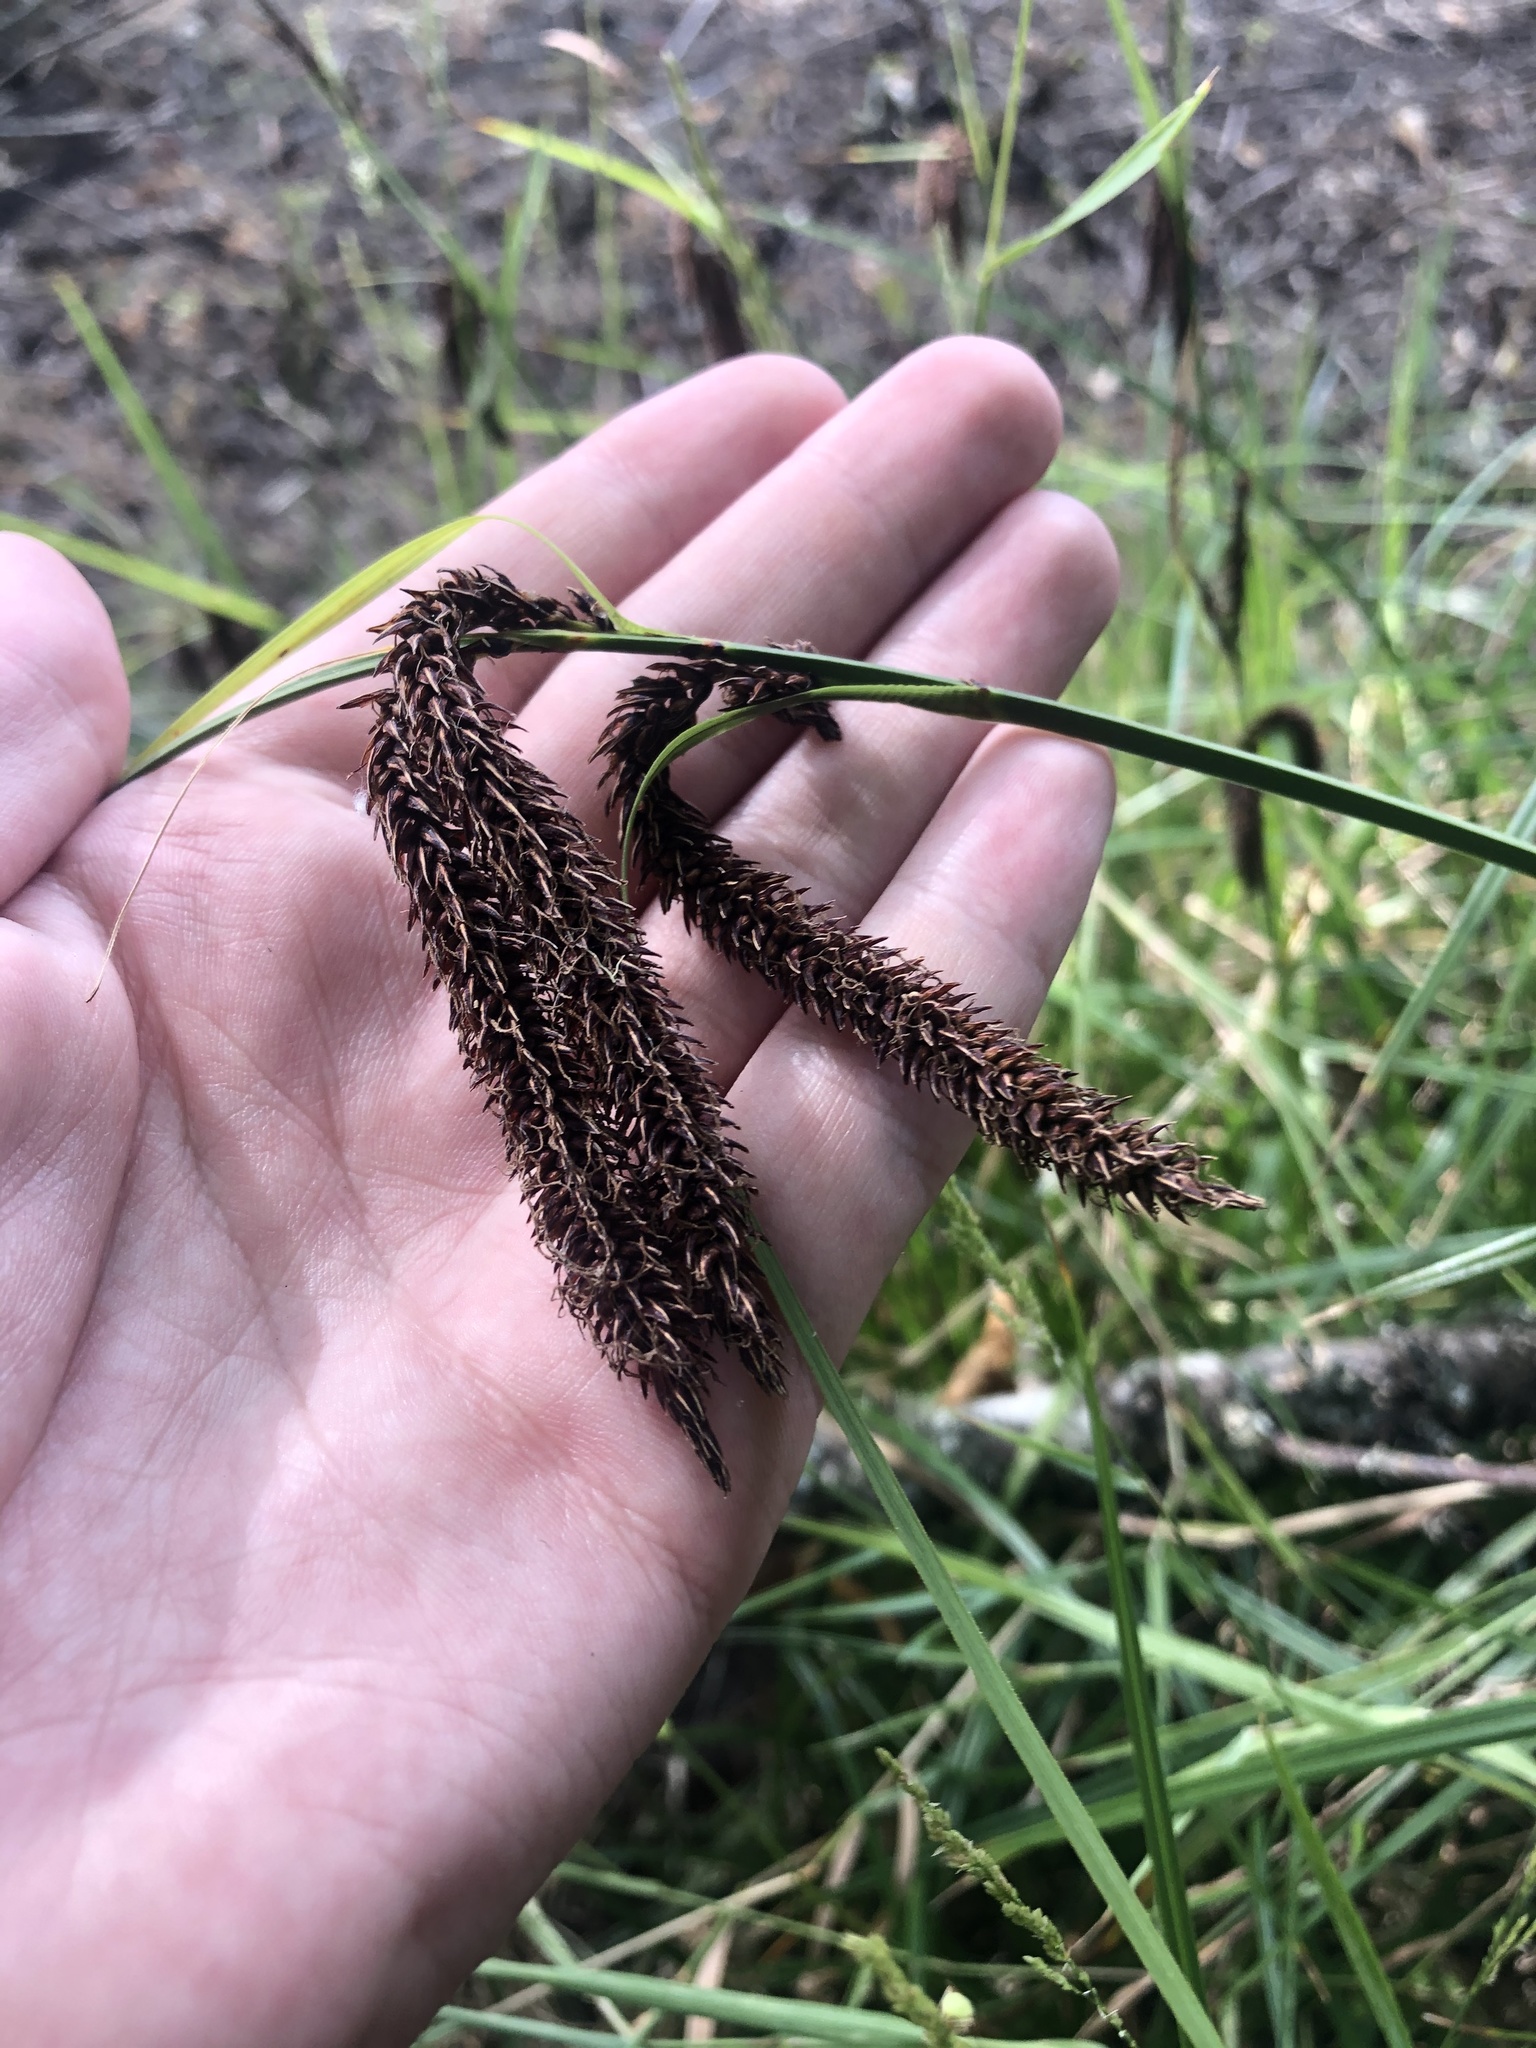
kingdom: Plantae
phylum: Tracheophyta
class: Liliopsida
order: Poales
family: Cyperaceae
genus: Carex
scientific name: Carex obnupta
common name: Slough sedge
